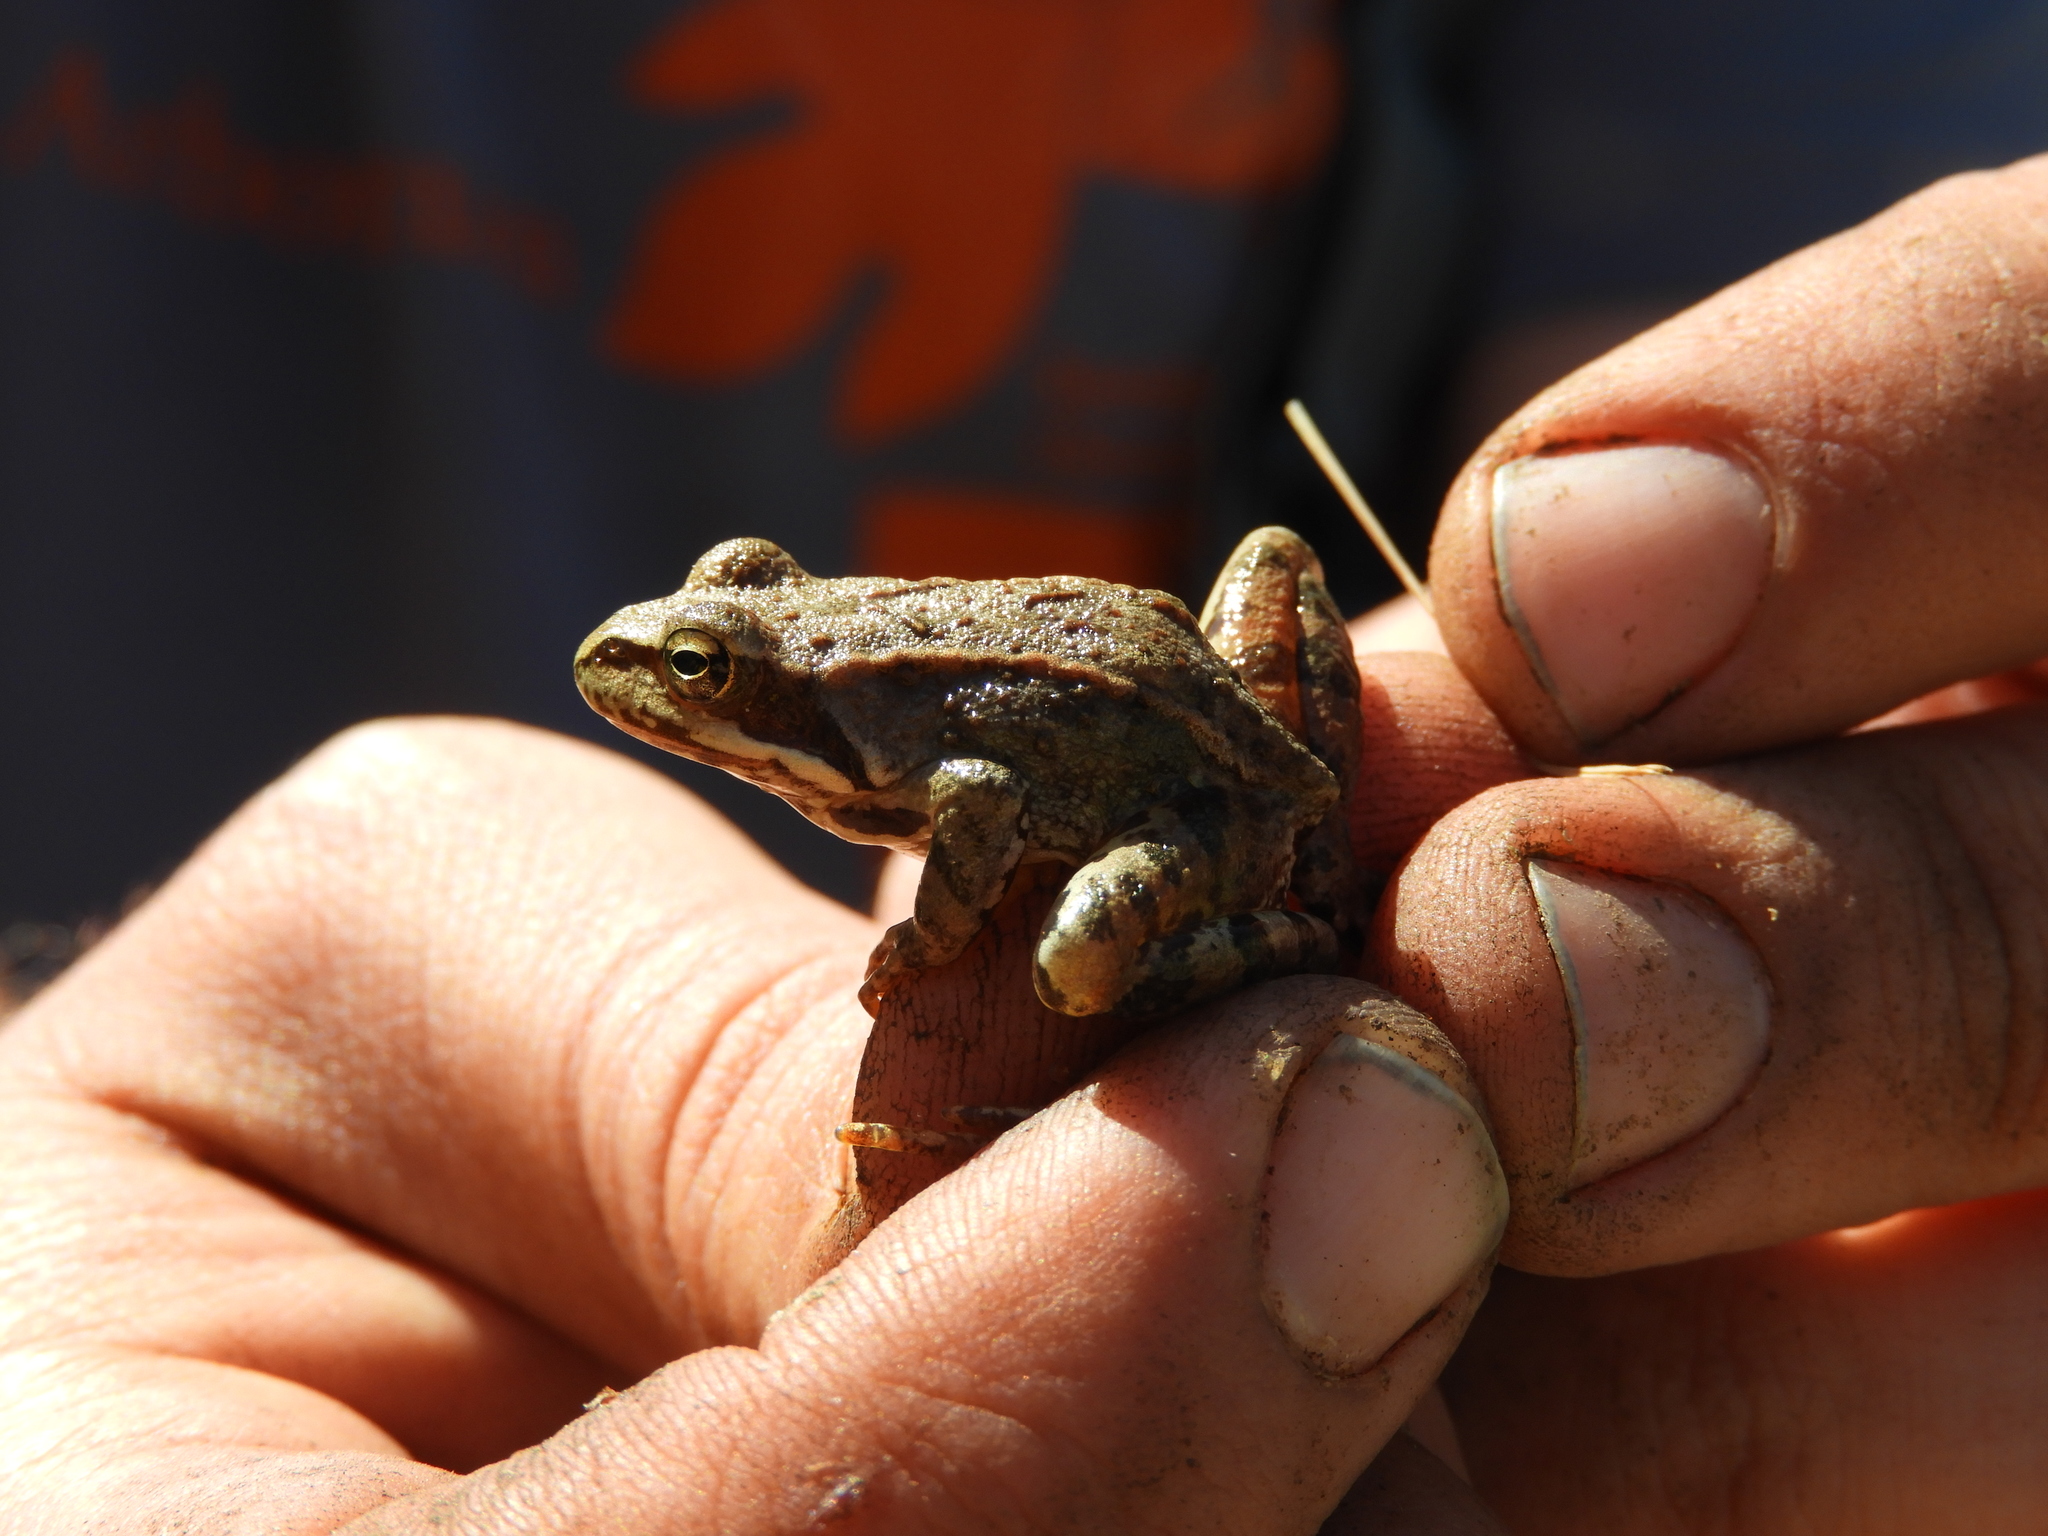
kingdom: Animalia
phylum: Chordata
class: Amphibia
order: Anura
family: Ranidae
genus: Rana
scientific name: Rana temporaria
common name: Common frog
